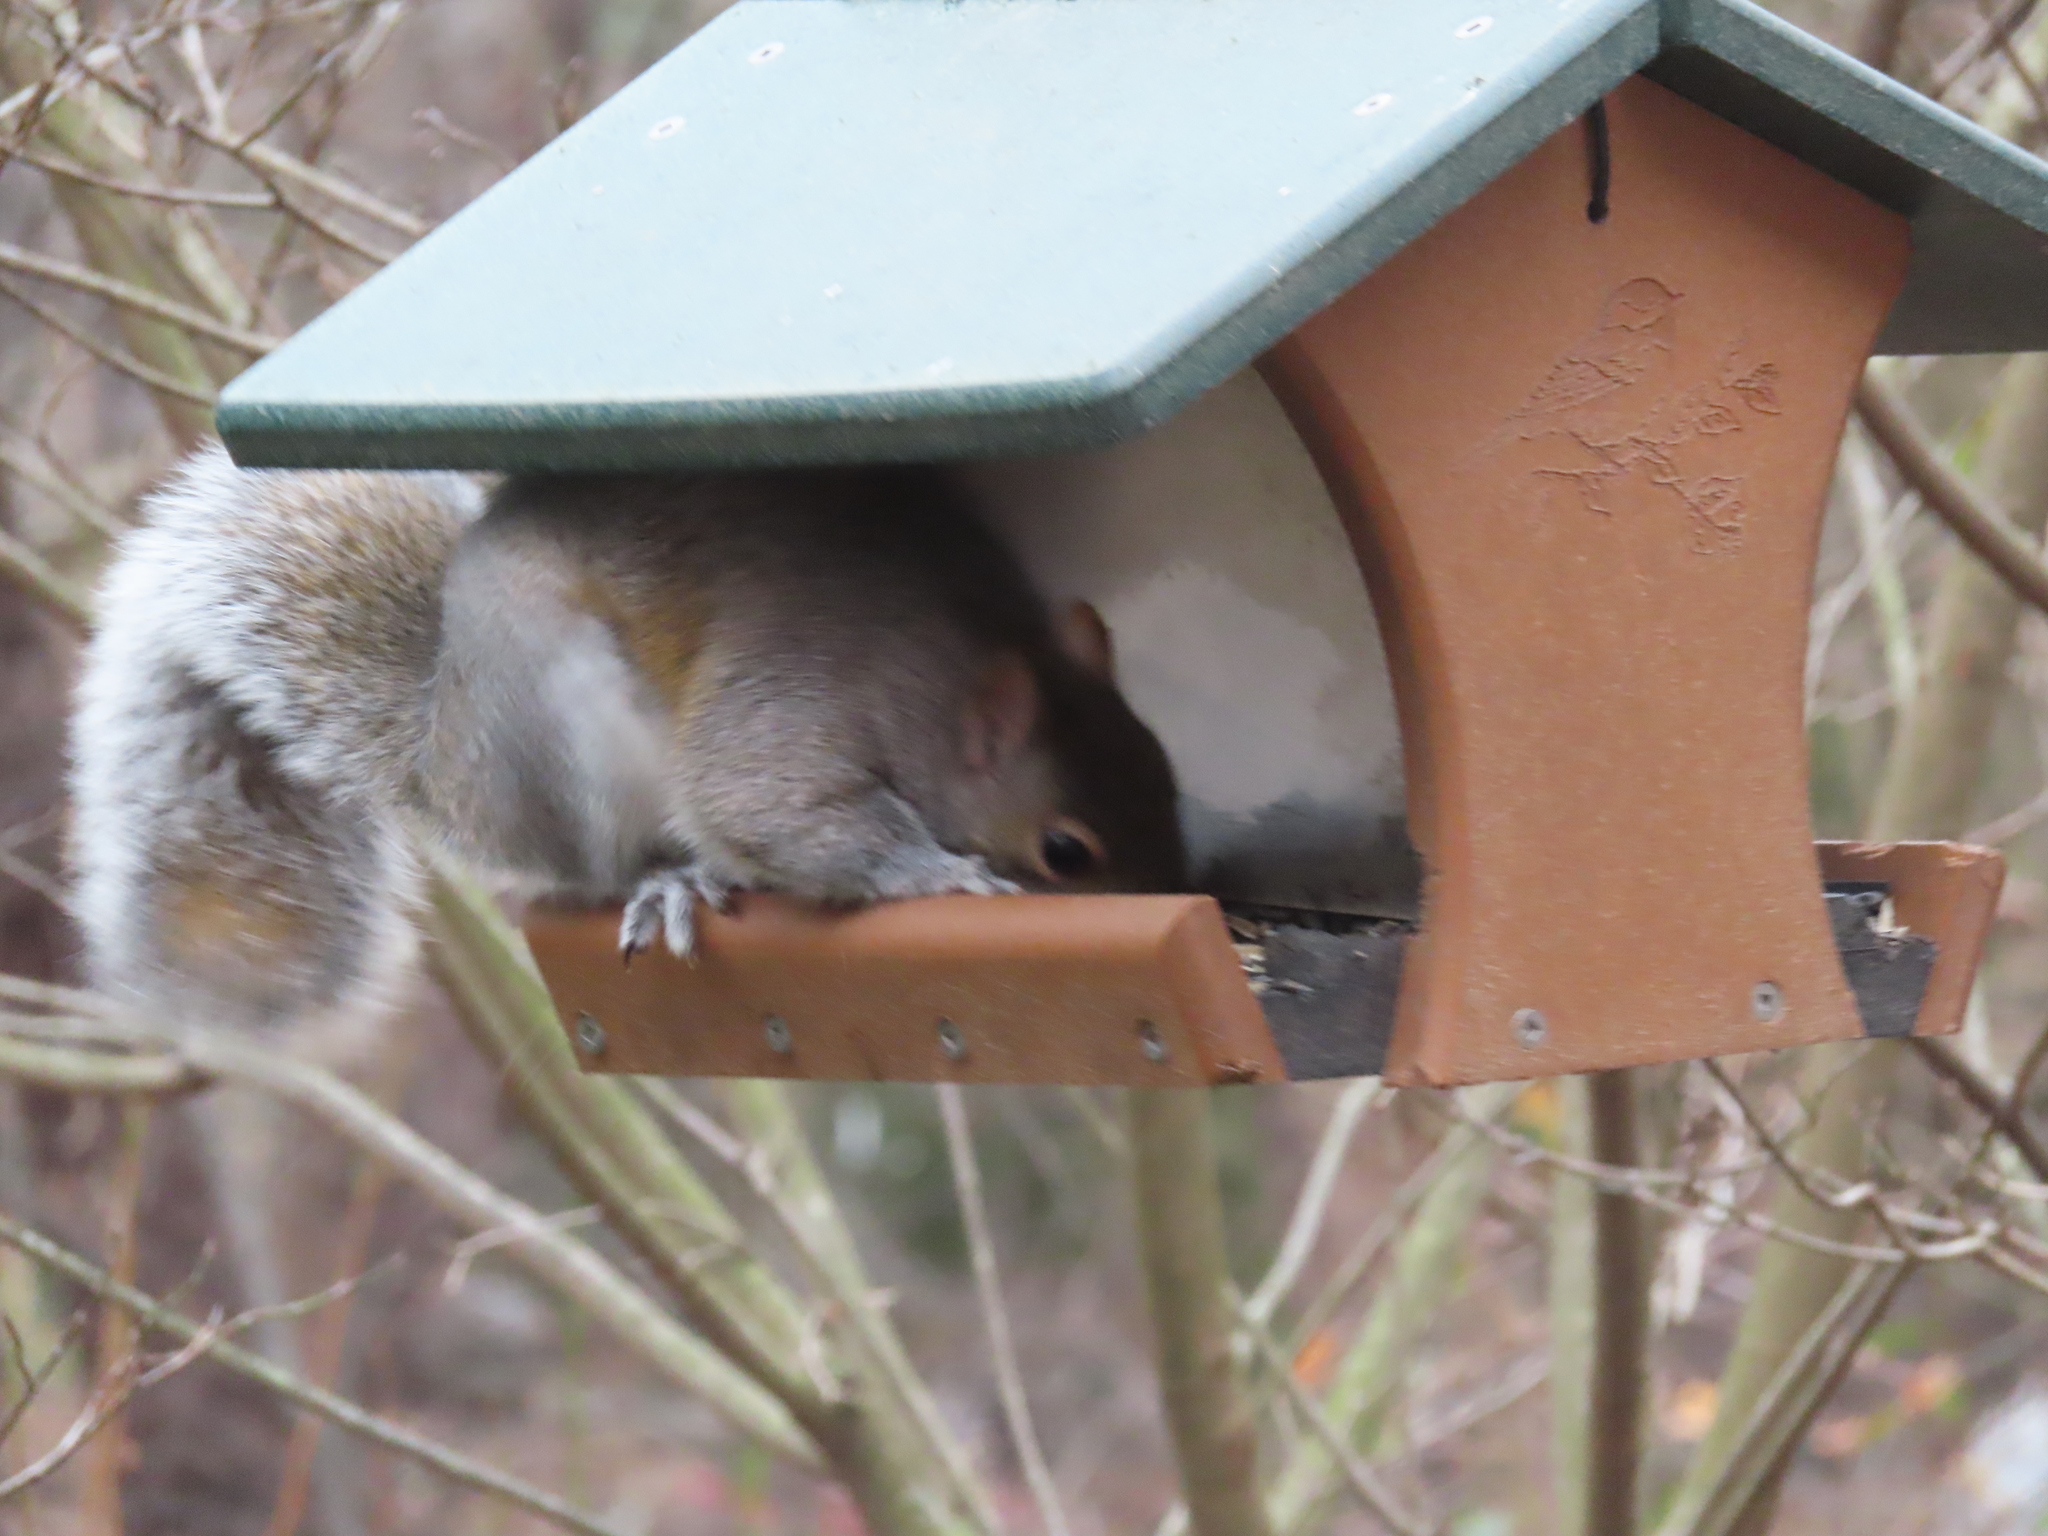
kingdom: Animalia
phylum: Chordata
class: Mammalia
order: Rodentia
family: Sciuridae
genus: Sciurus
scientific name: Sciurus carolinensis
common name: Eastern gray squirrel
